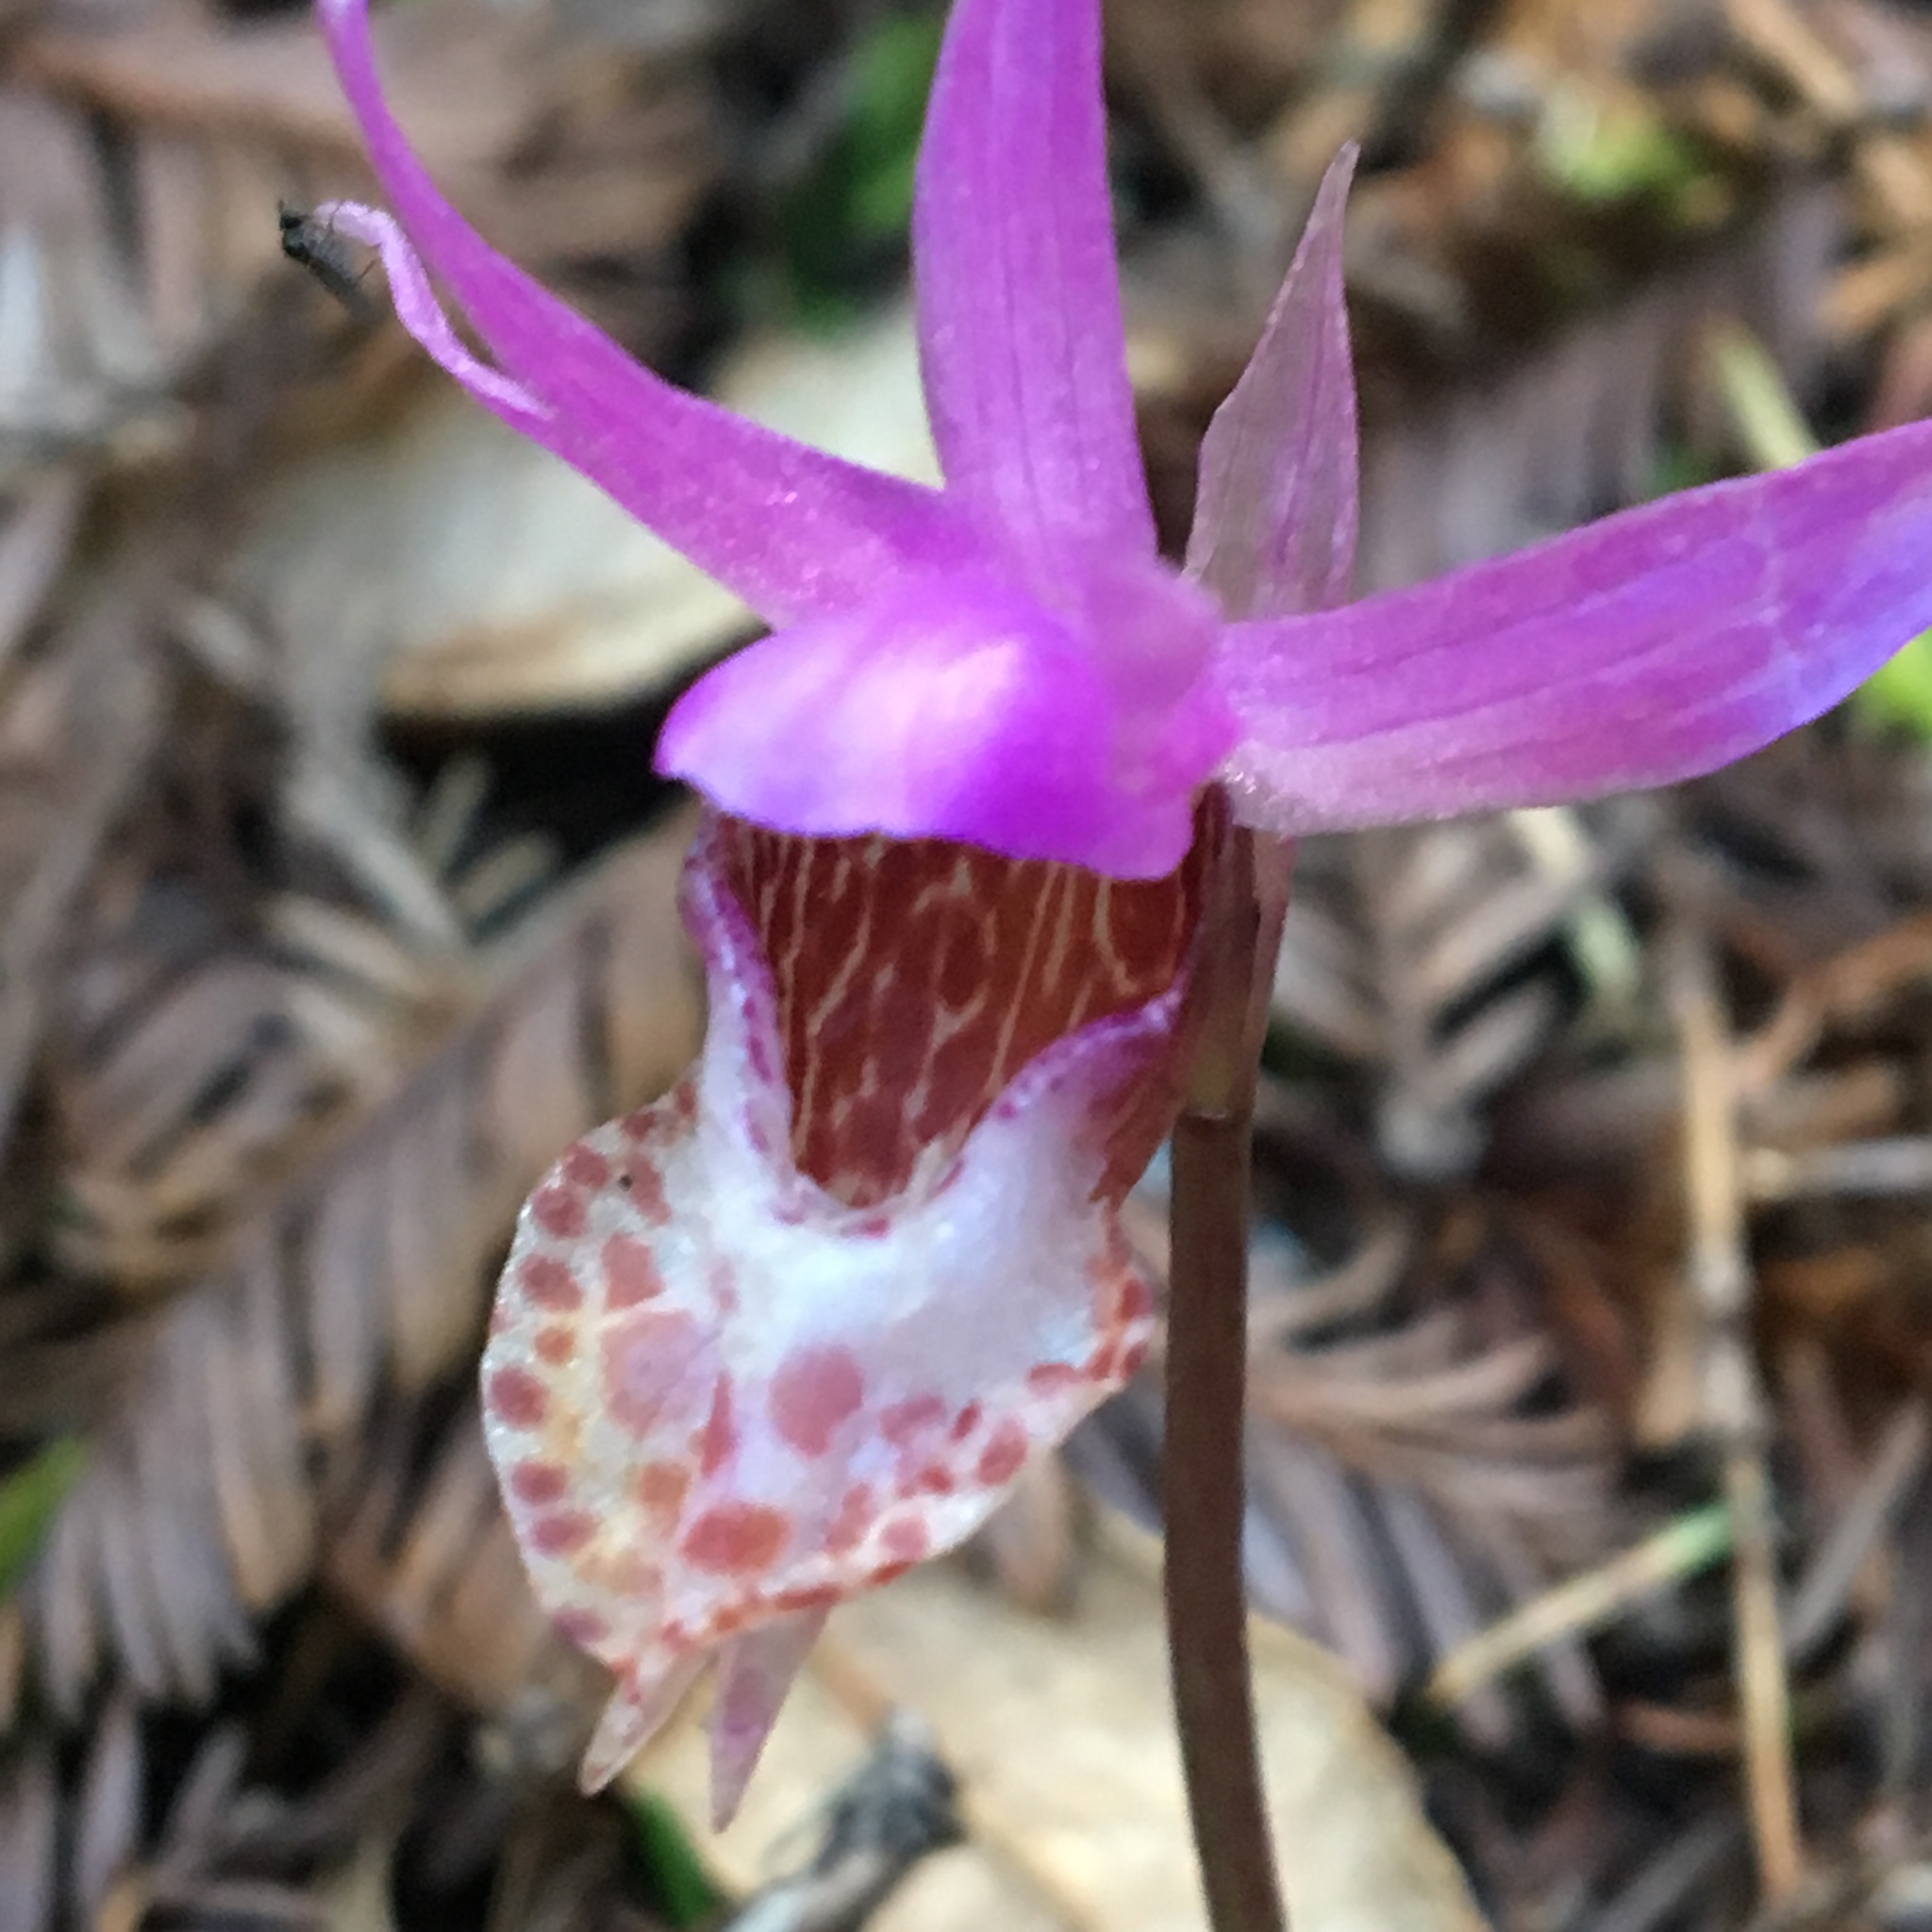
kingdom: Plantae
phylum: Tracheophyta
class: Liliopsida
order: Asparagales
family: Orchidaceae
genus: Calypso
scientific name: Calypso bulbosa
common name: Calypso
